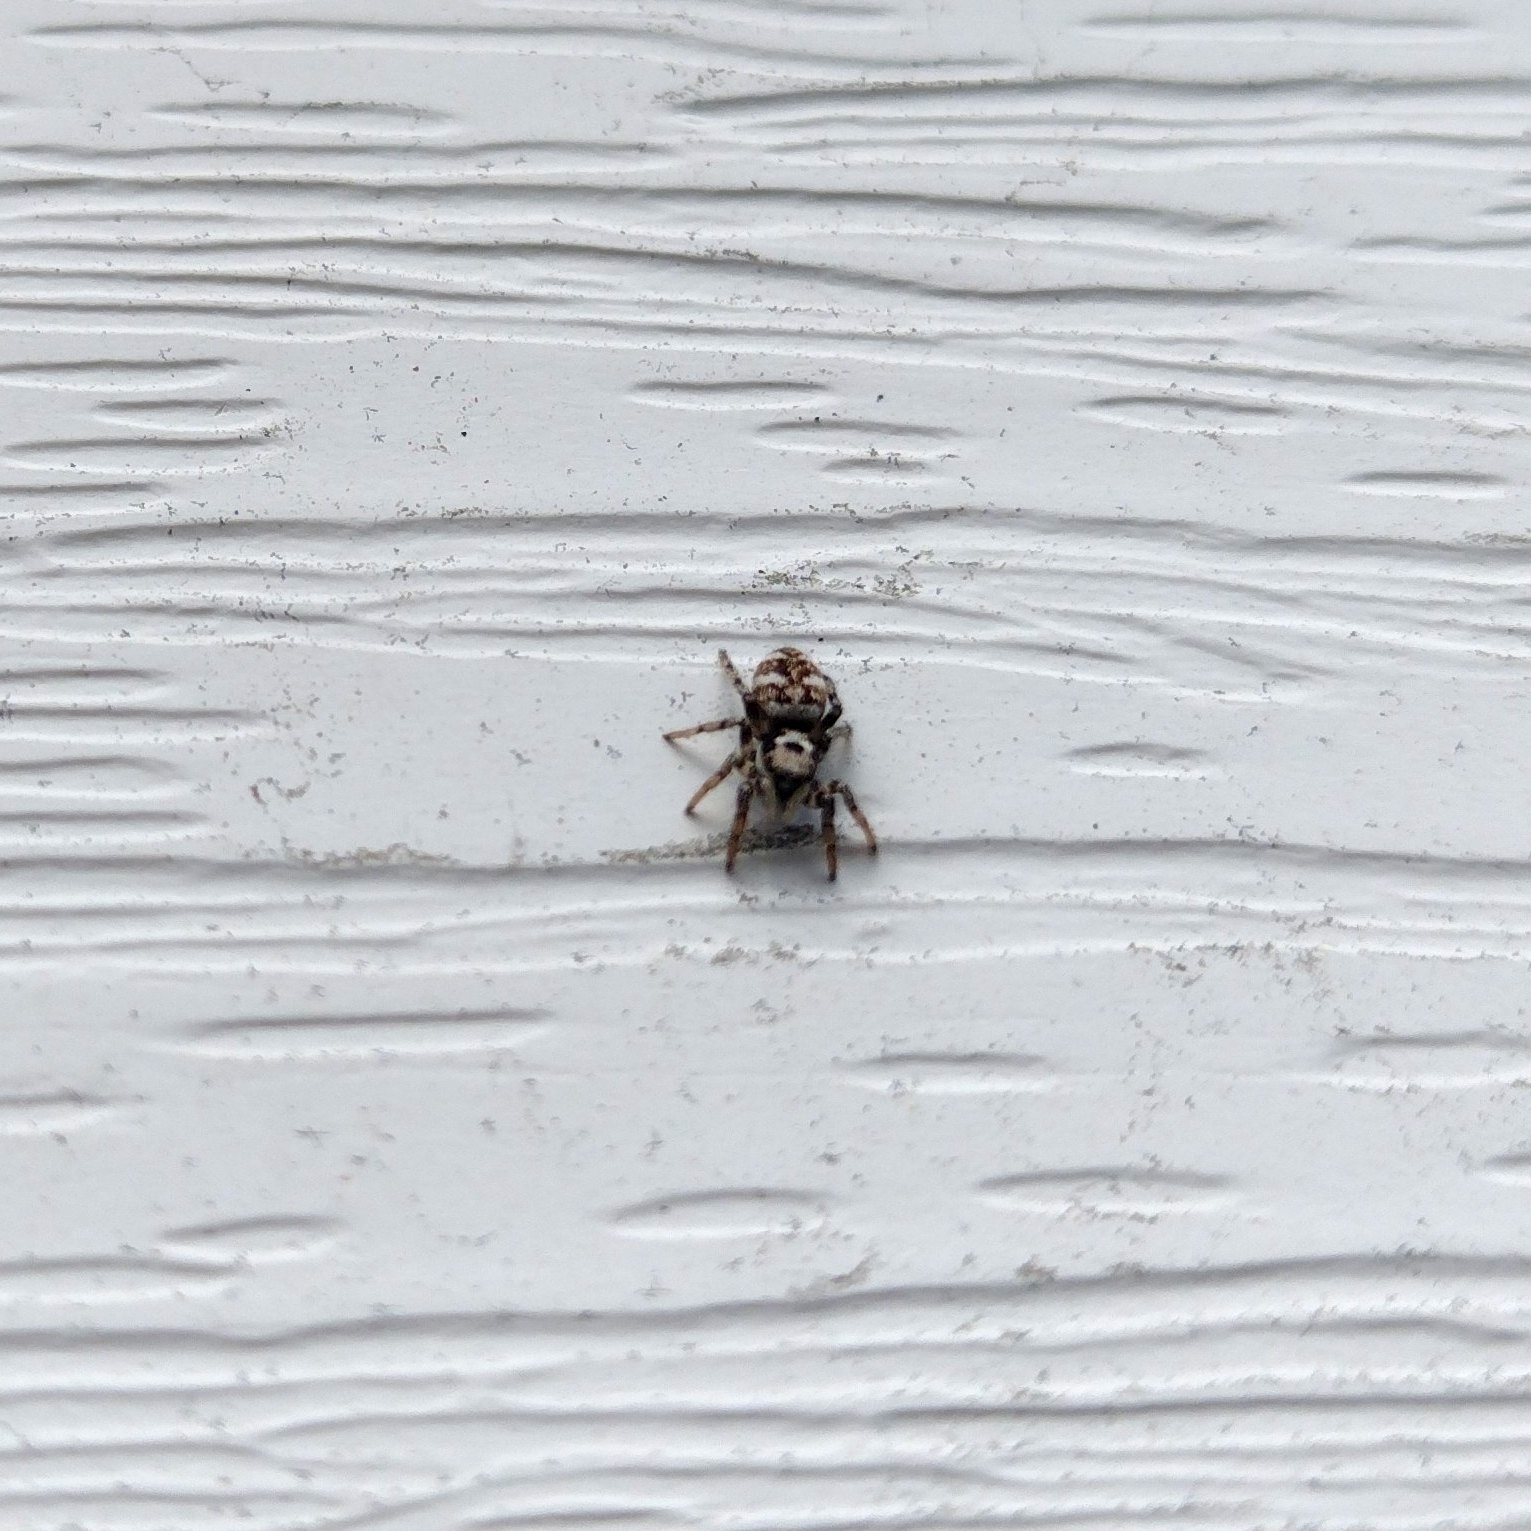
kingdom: Animalia
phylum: Arthropoda
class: Arachnida
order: Araneae
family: Salticidae
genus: Salticus
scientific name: Salticus scenicus
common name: Zebra jumper
